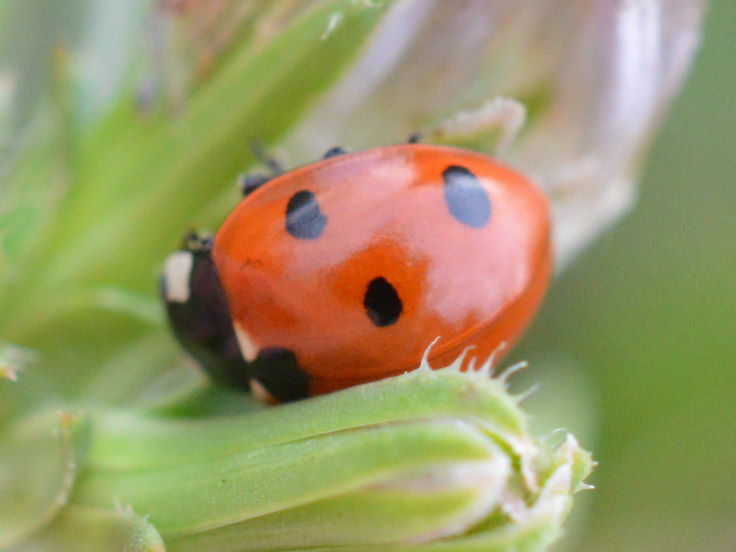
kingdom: Animalia
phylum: Arthropoda
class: Insecta
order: Coleoptera
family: Coccinellidae
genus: Coccinella
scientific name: Coccinella septempunctata
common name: Sevenspotted lady beetle
